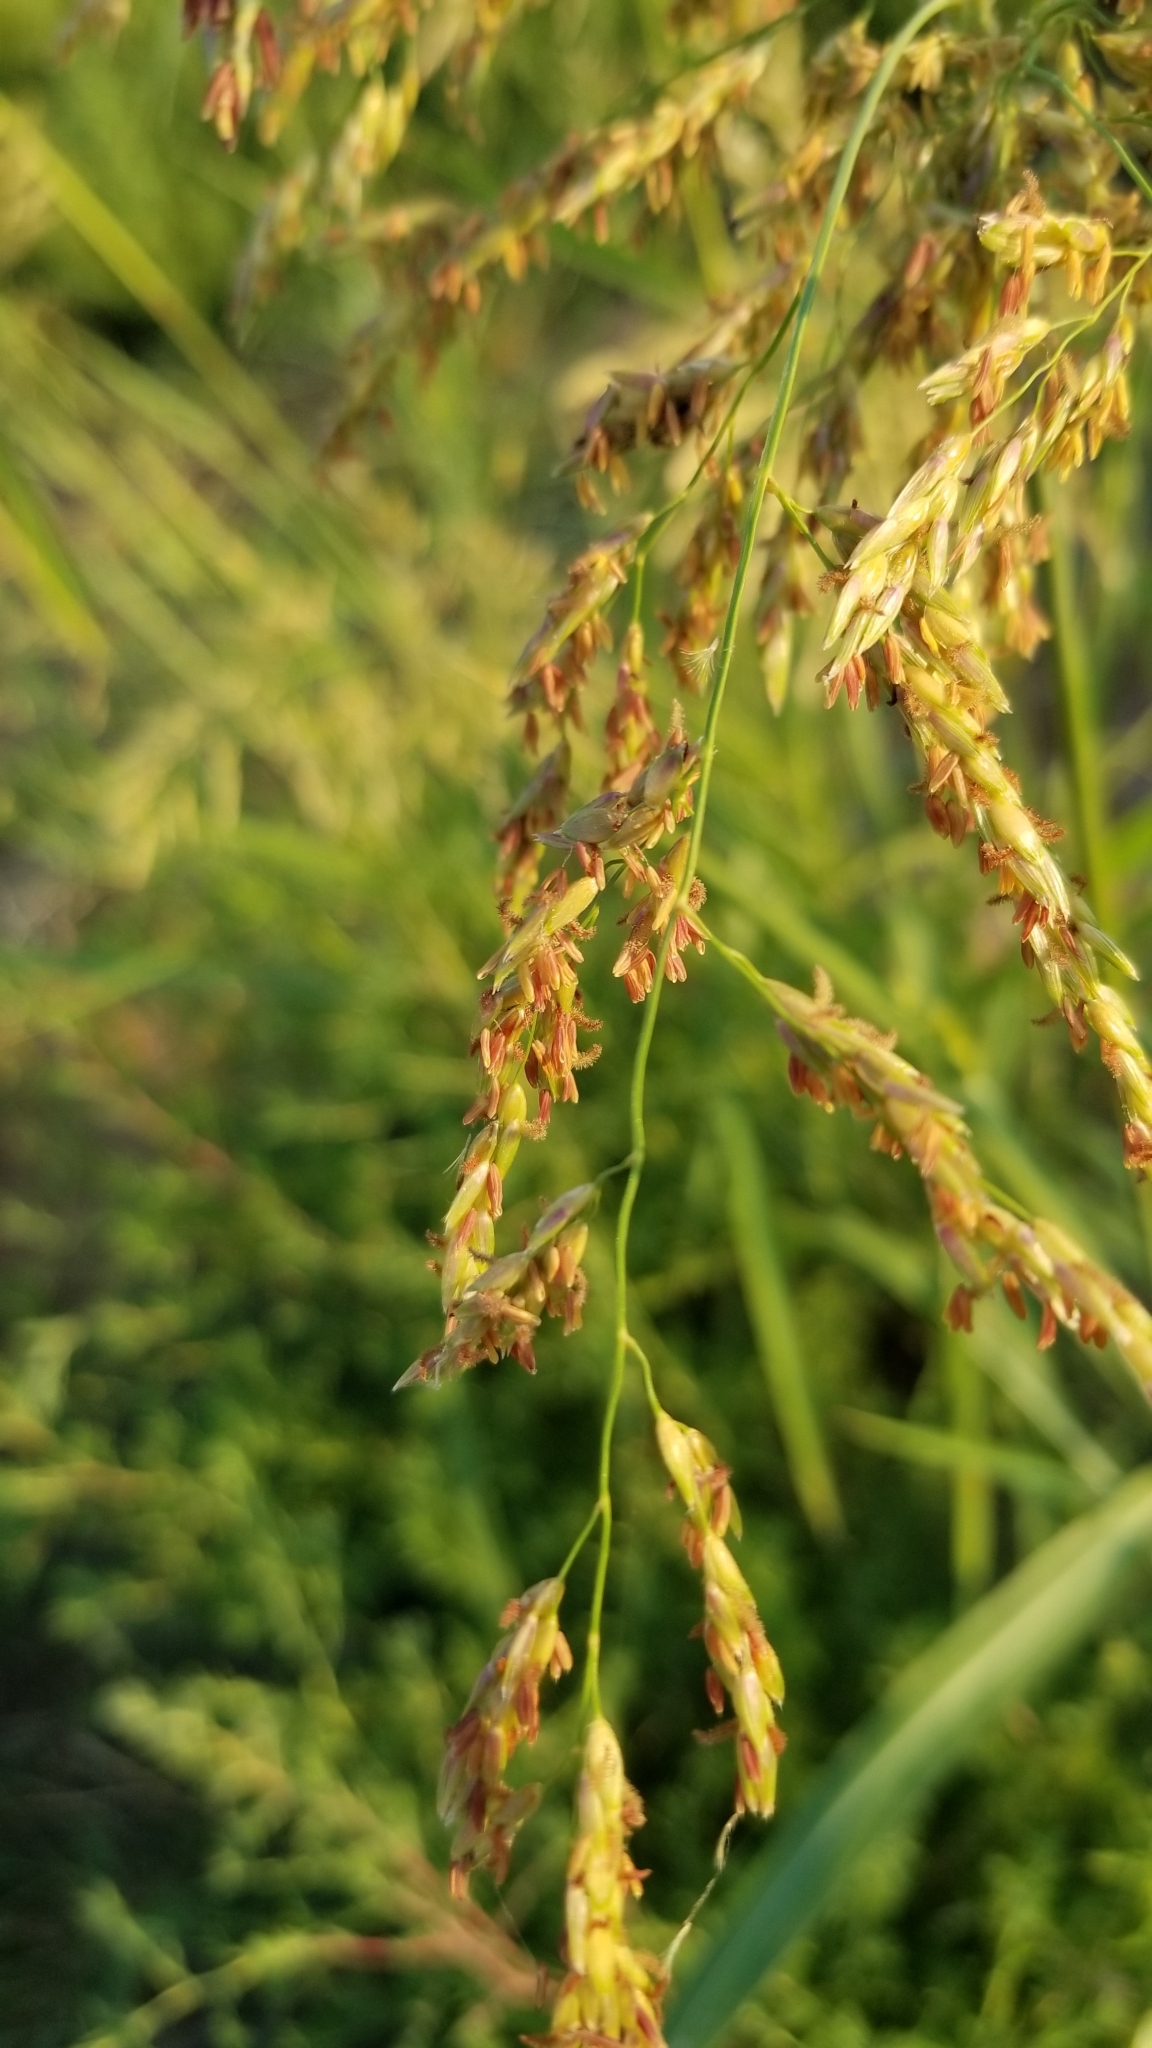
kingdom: Plantae
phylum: Tracheophyta
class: Liliopsida
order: Poales
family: Poaceae
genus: Sorghum
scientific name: Sorghum halepense
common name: Johnson-grass
